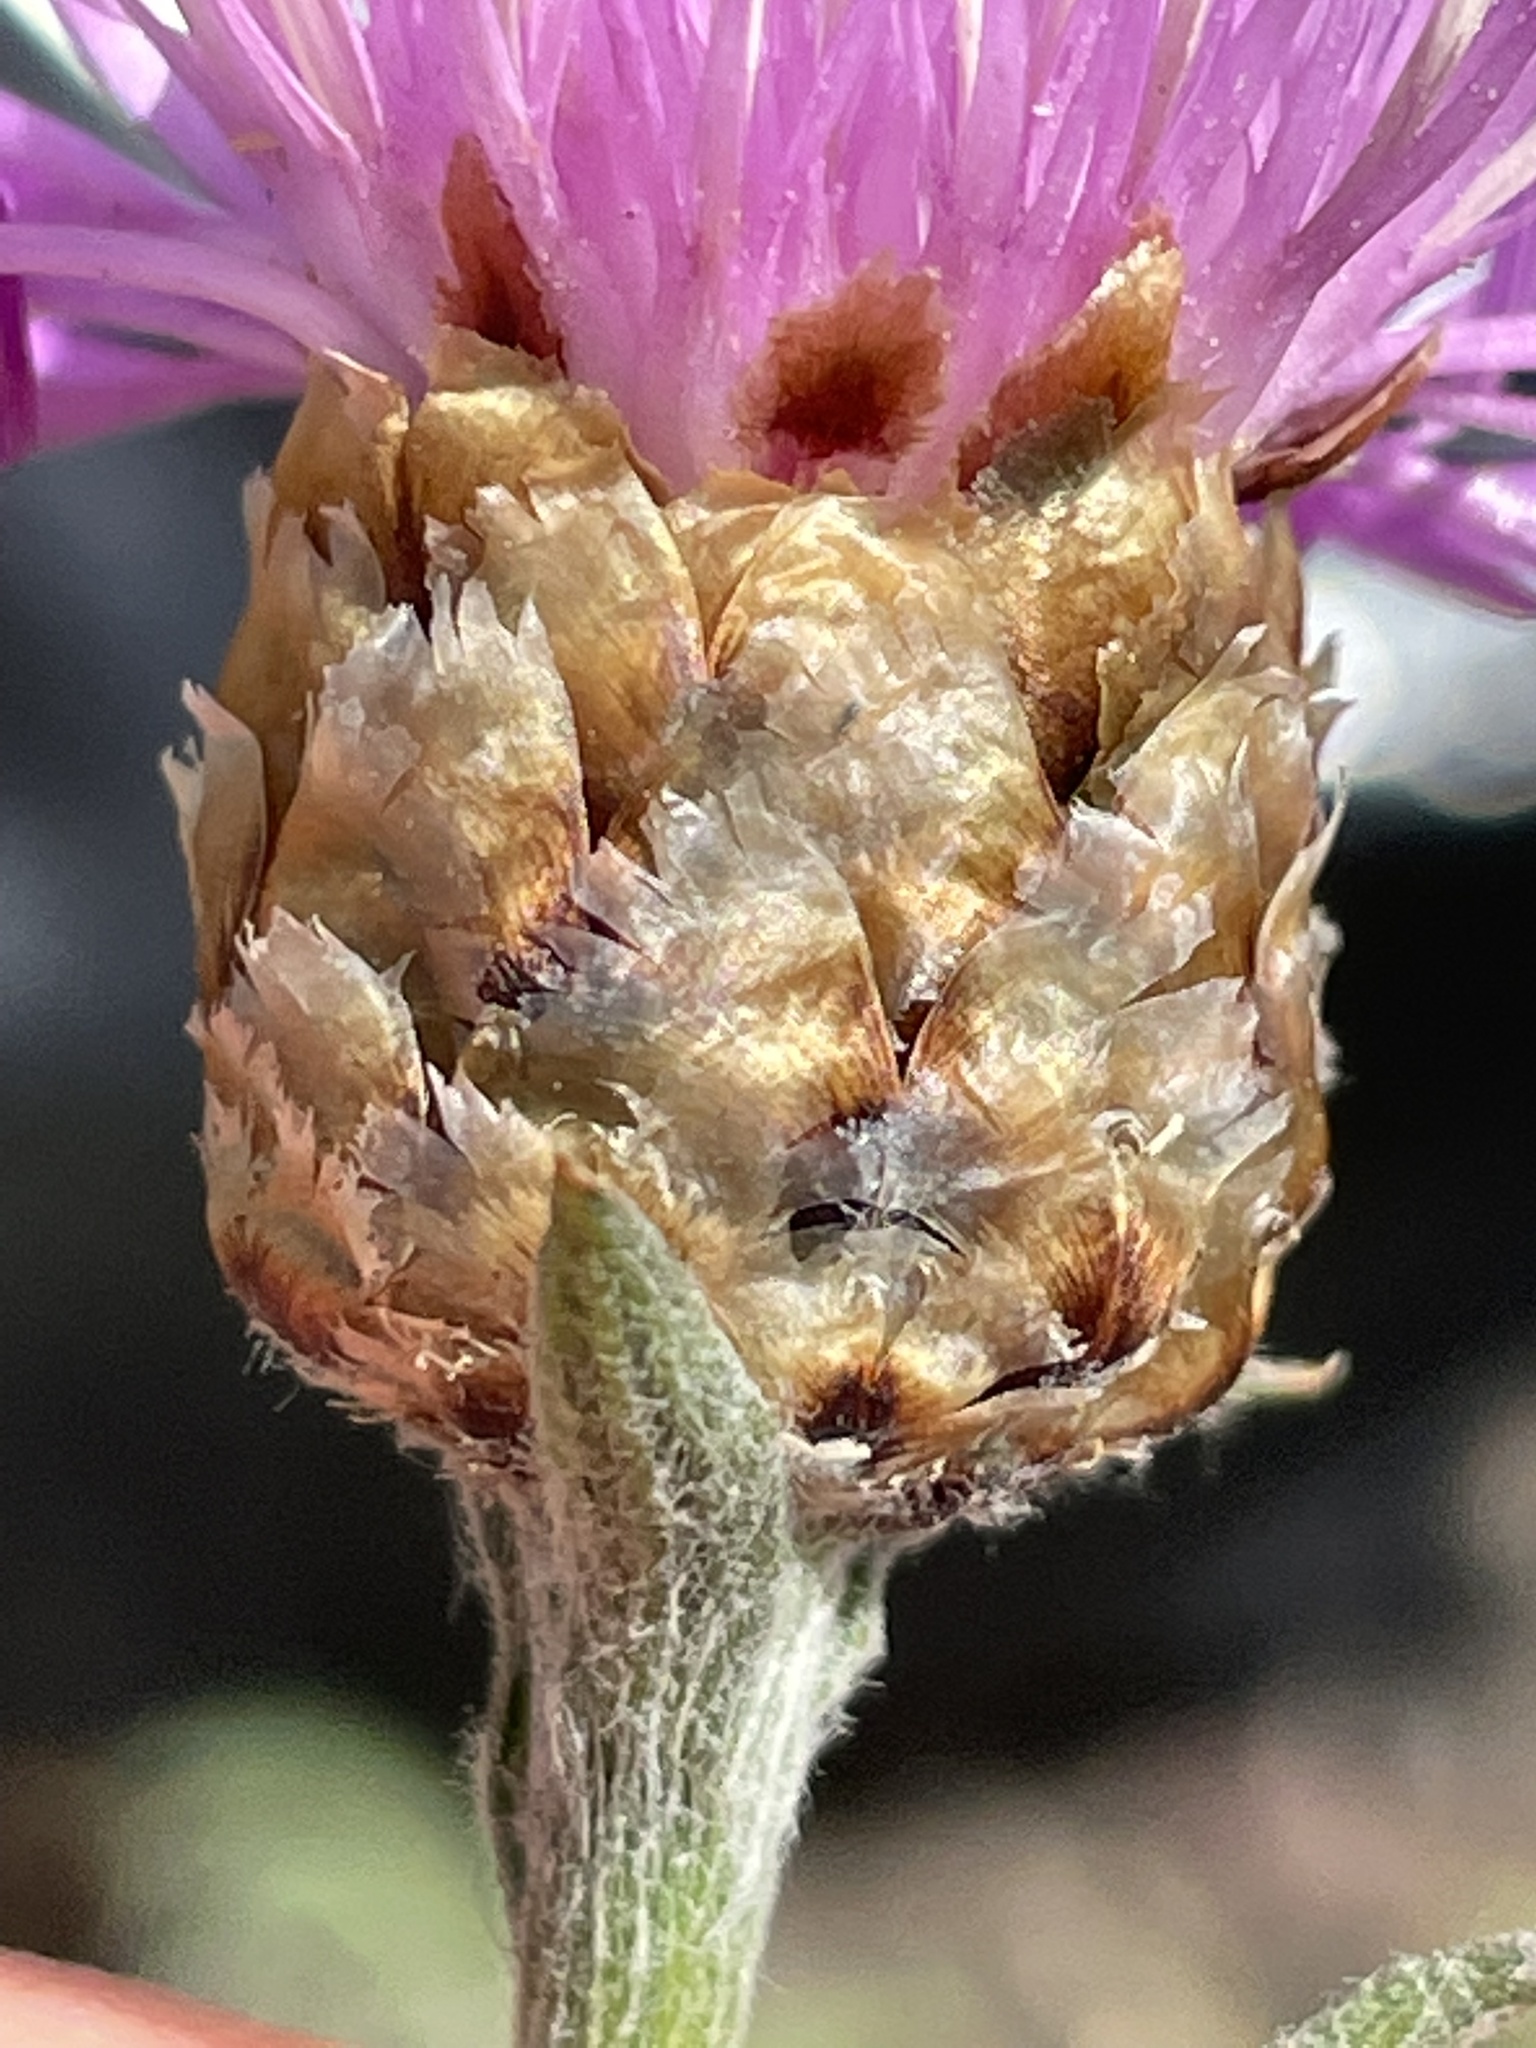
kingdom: Plantae
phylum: Tracheophyta
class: Magnoliopsida
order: Asterales
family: Asteraceae
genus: Centaurea
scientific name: Centaurea jacea
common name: Brown knapweed
